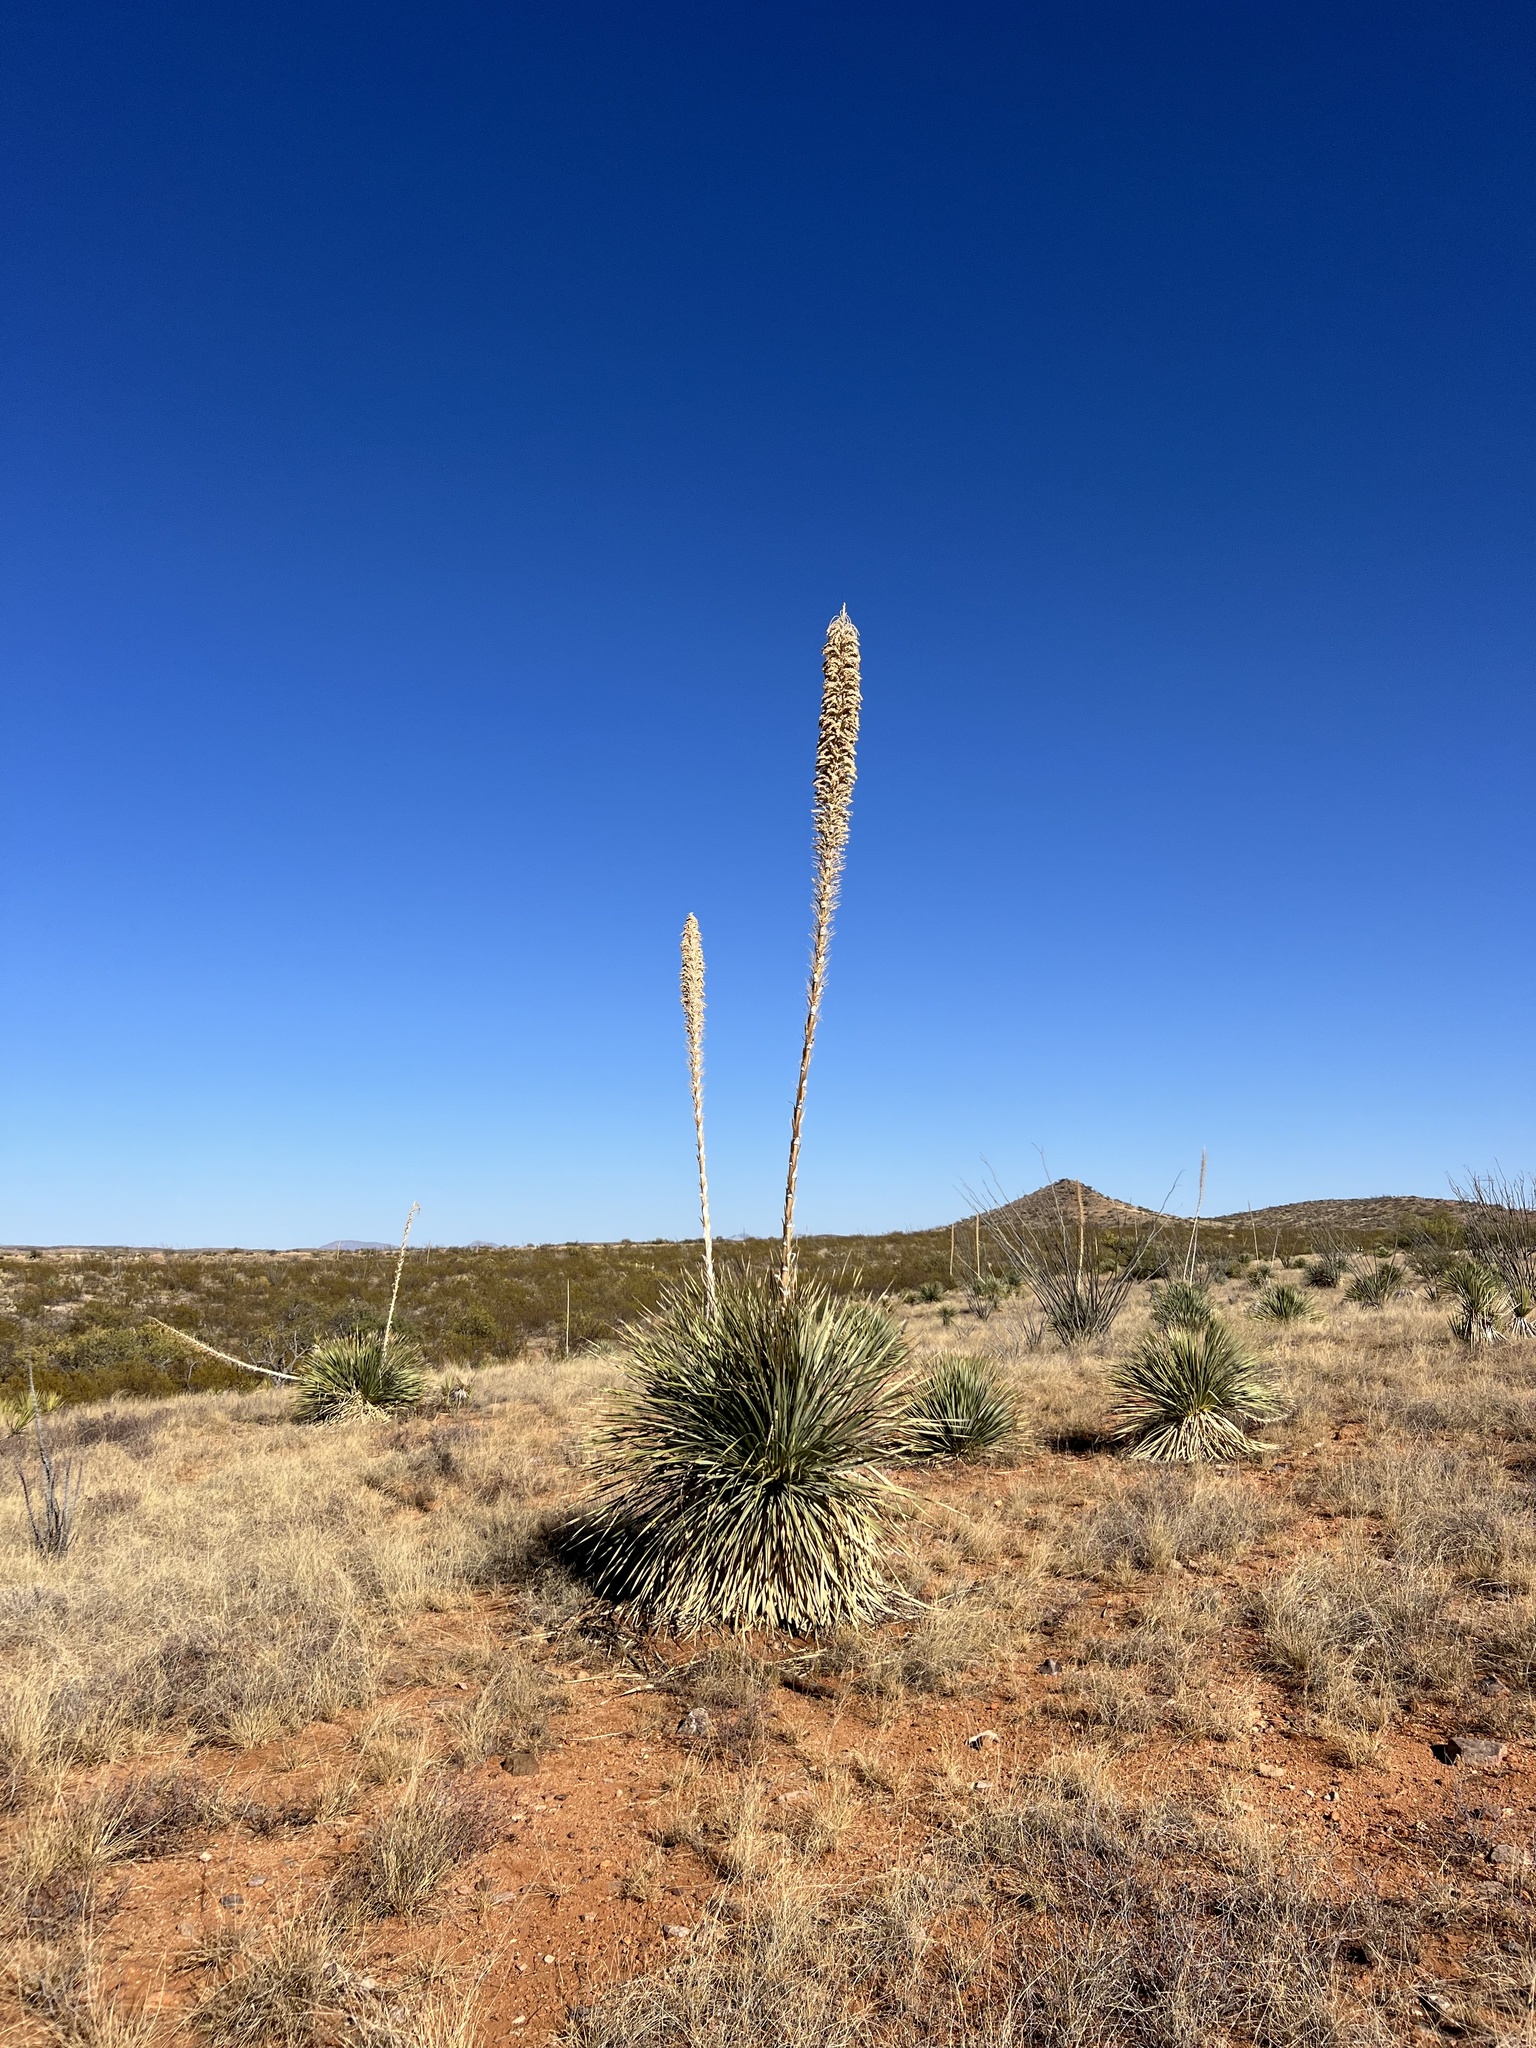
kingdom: Plantae
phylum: Tracheophyta
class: Liliopsida
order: Asparagales
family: Asparagaceae
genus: Dasylirion
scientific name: Dasylirion wheeleri
